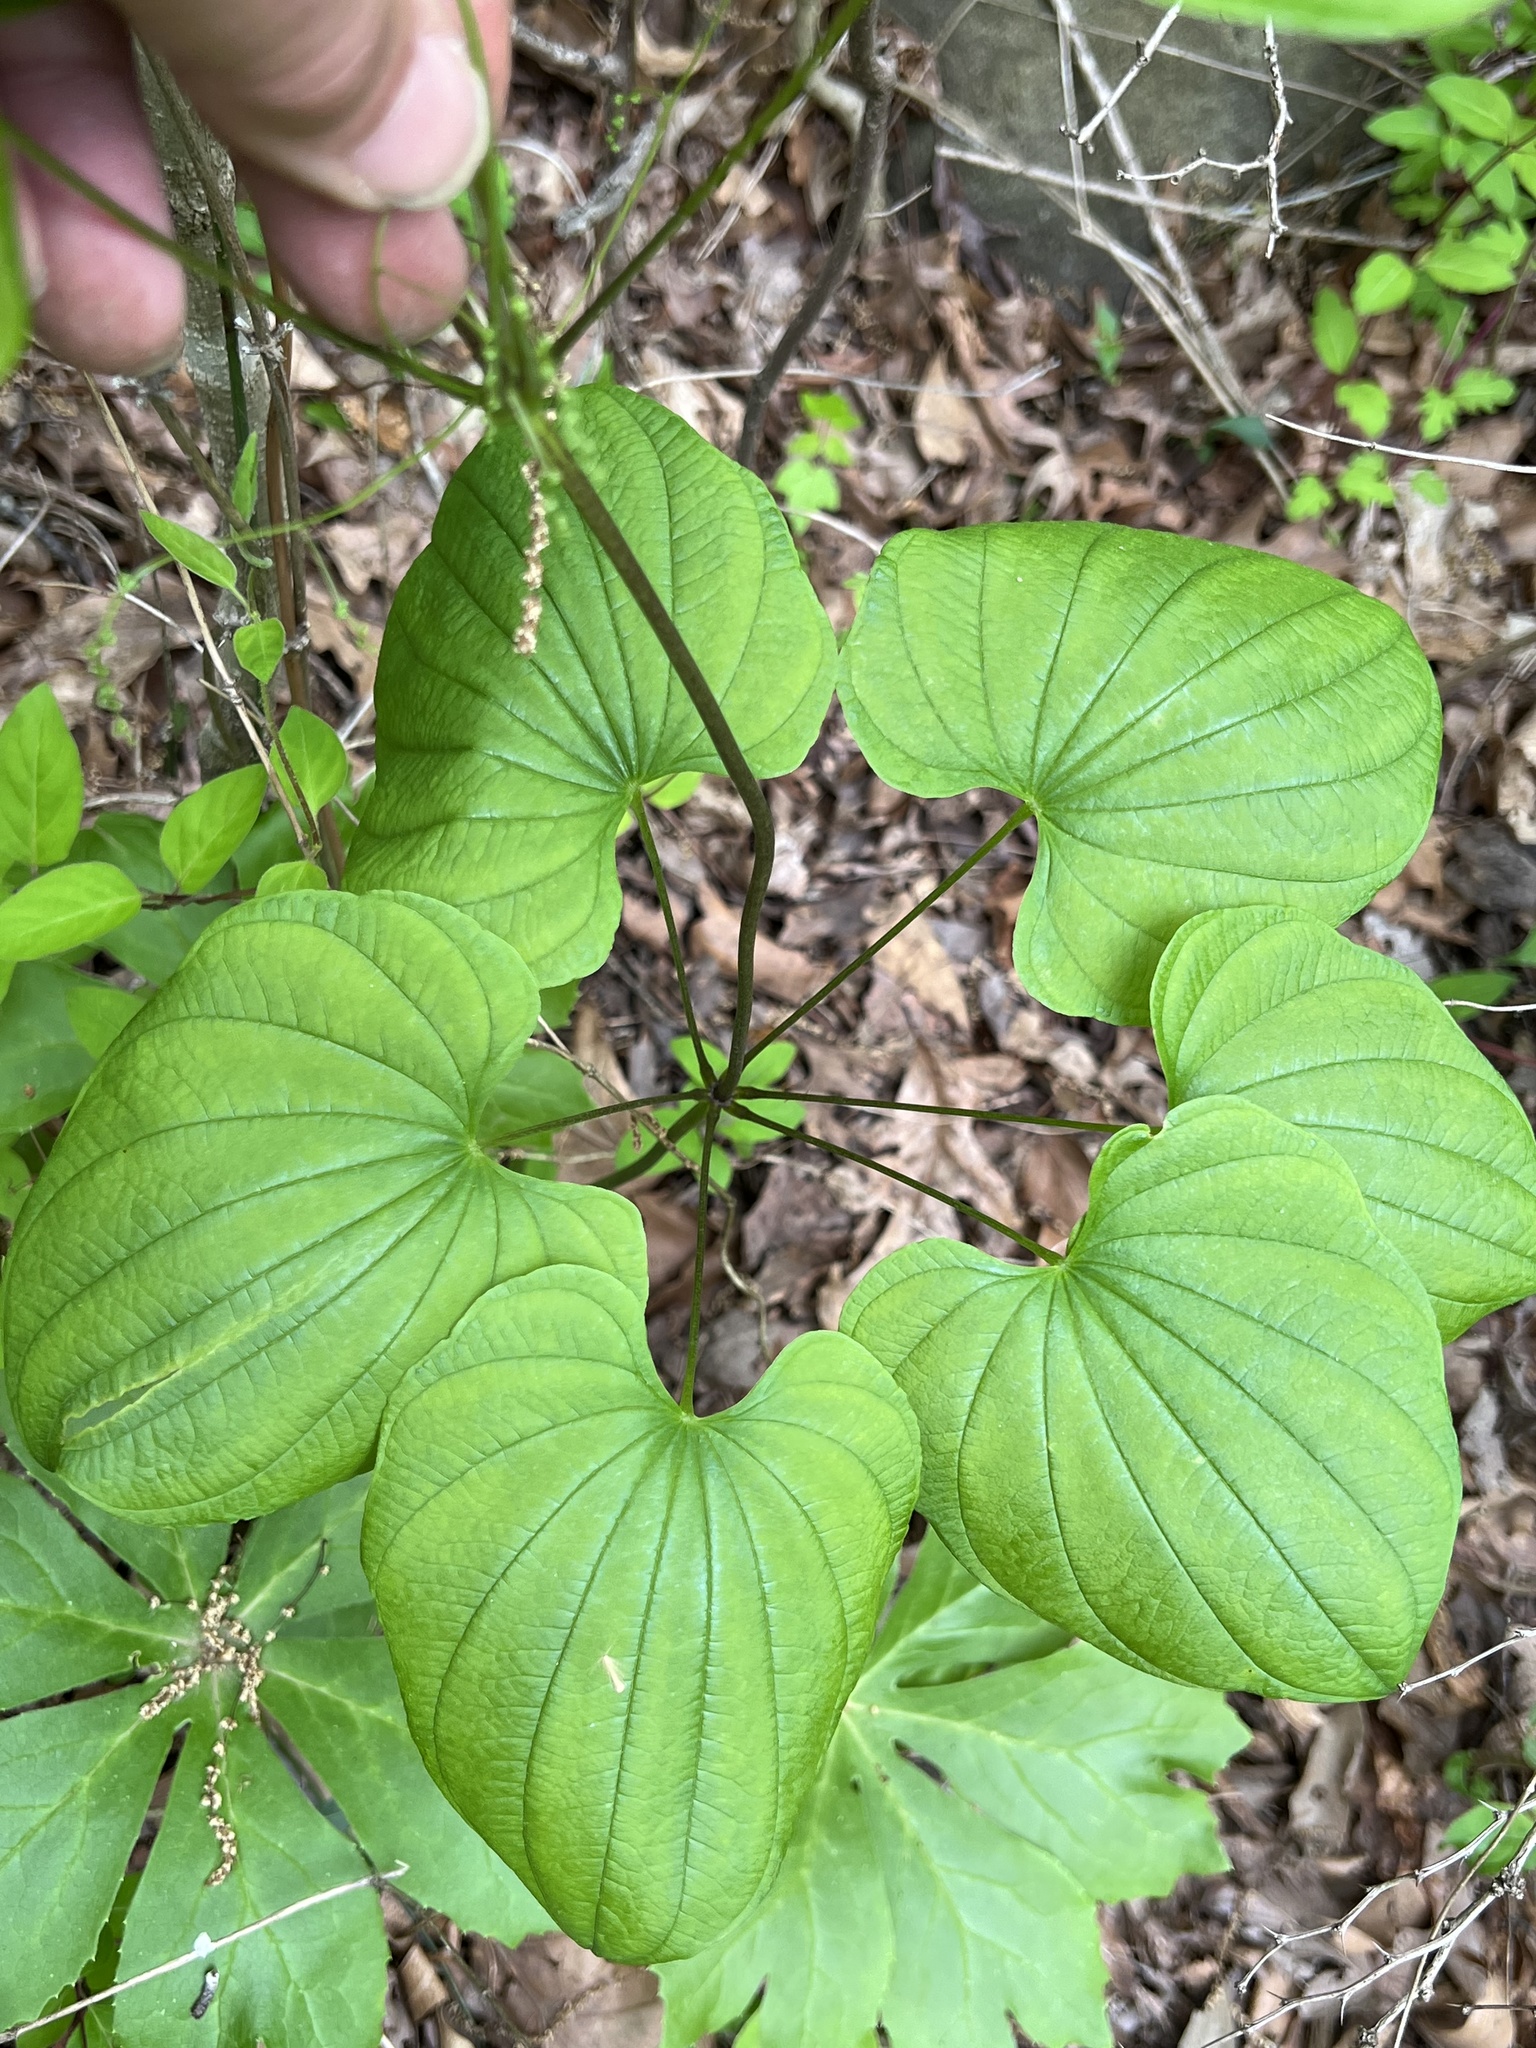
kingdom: Plantae
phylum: Tracheophyta
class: Liliopsida
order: Dioscoreales
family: Dioscoreaceae
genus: Dioscorea
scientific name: Dioscorea villosa
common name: Wild yam
